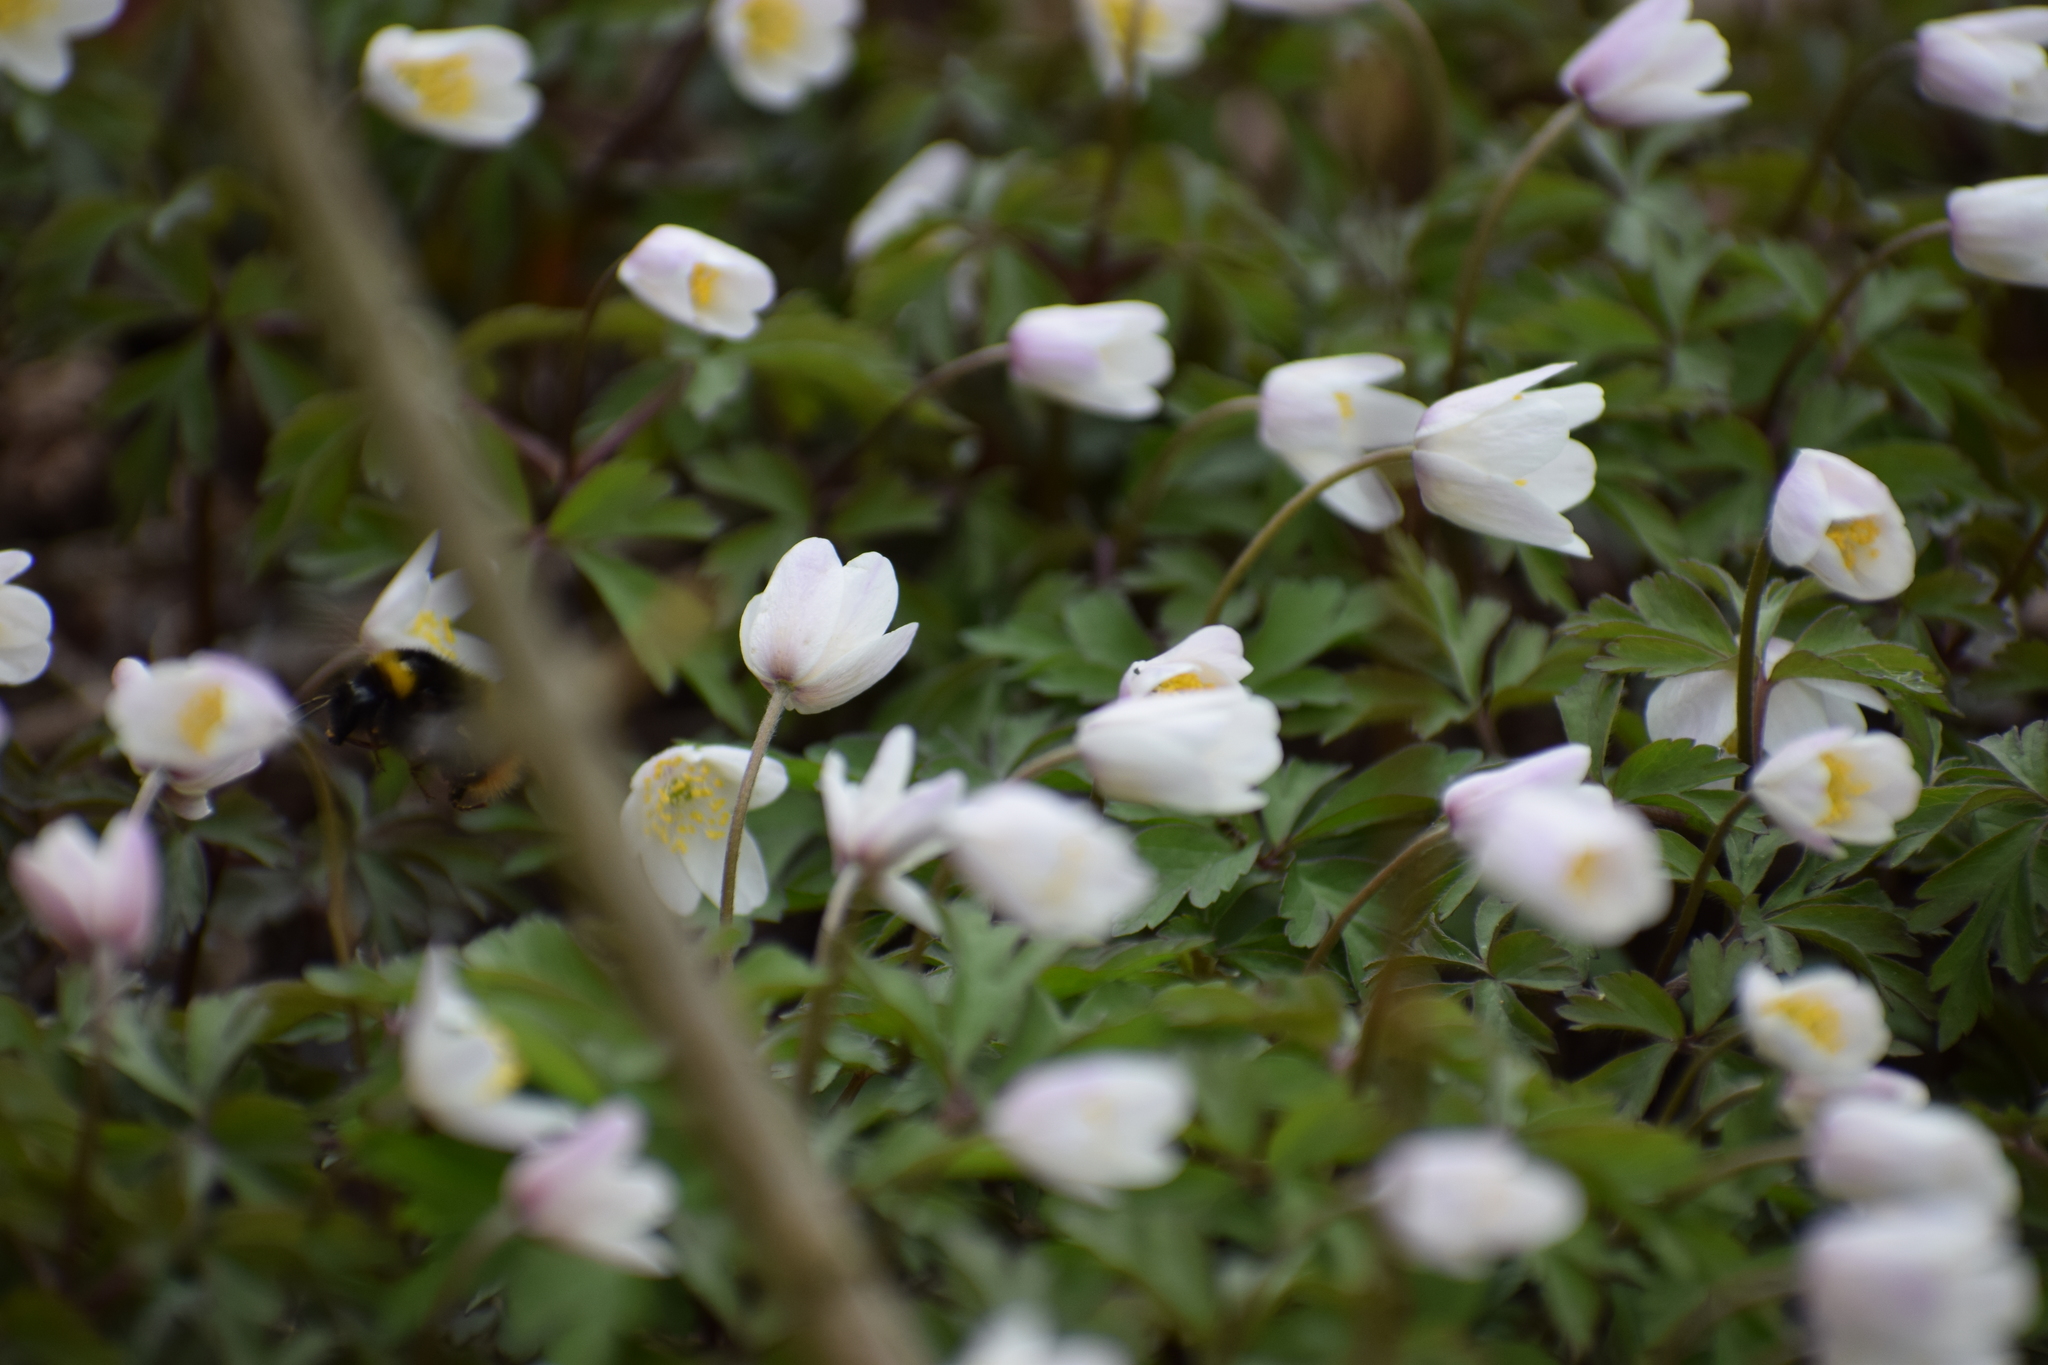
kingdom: Plantae
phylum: Tracheophyta
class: Magnoliopsida
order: Ranunculales
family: Ranunculaceae
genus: Anemone
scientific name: Anemone nemorosa
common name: Wood anemone
